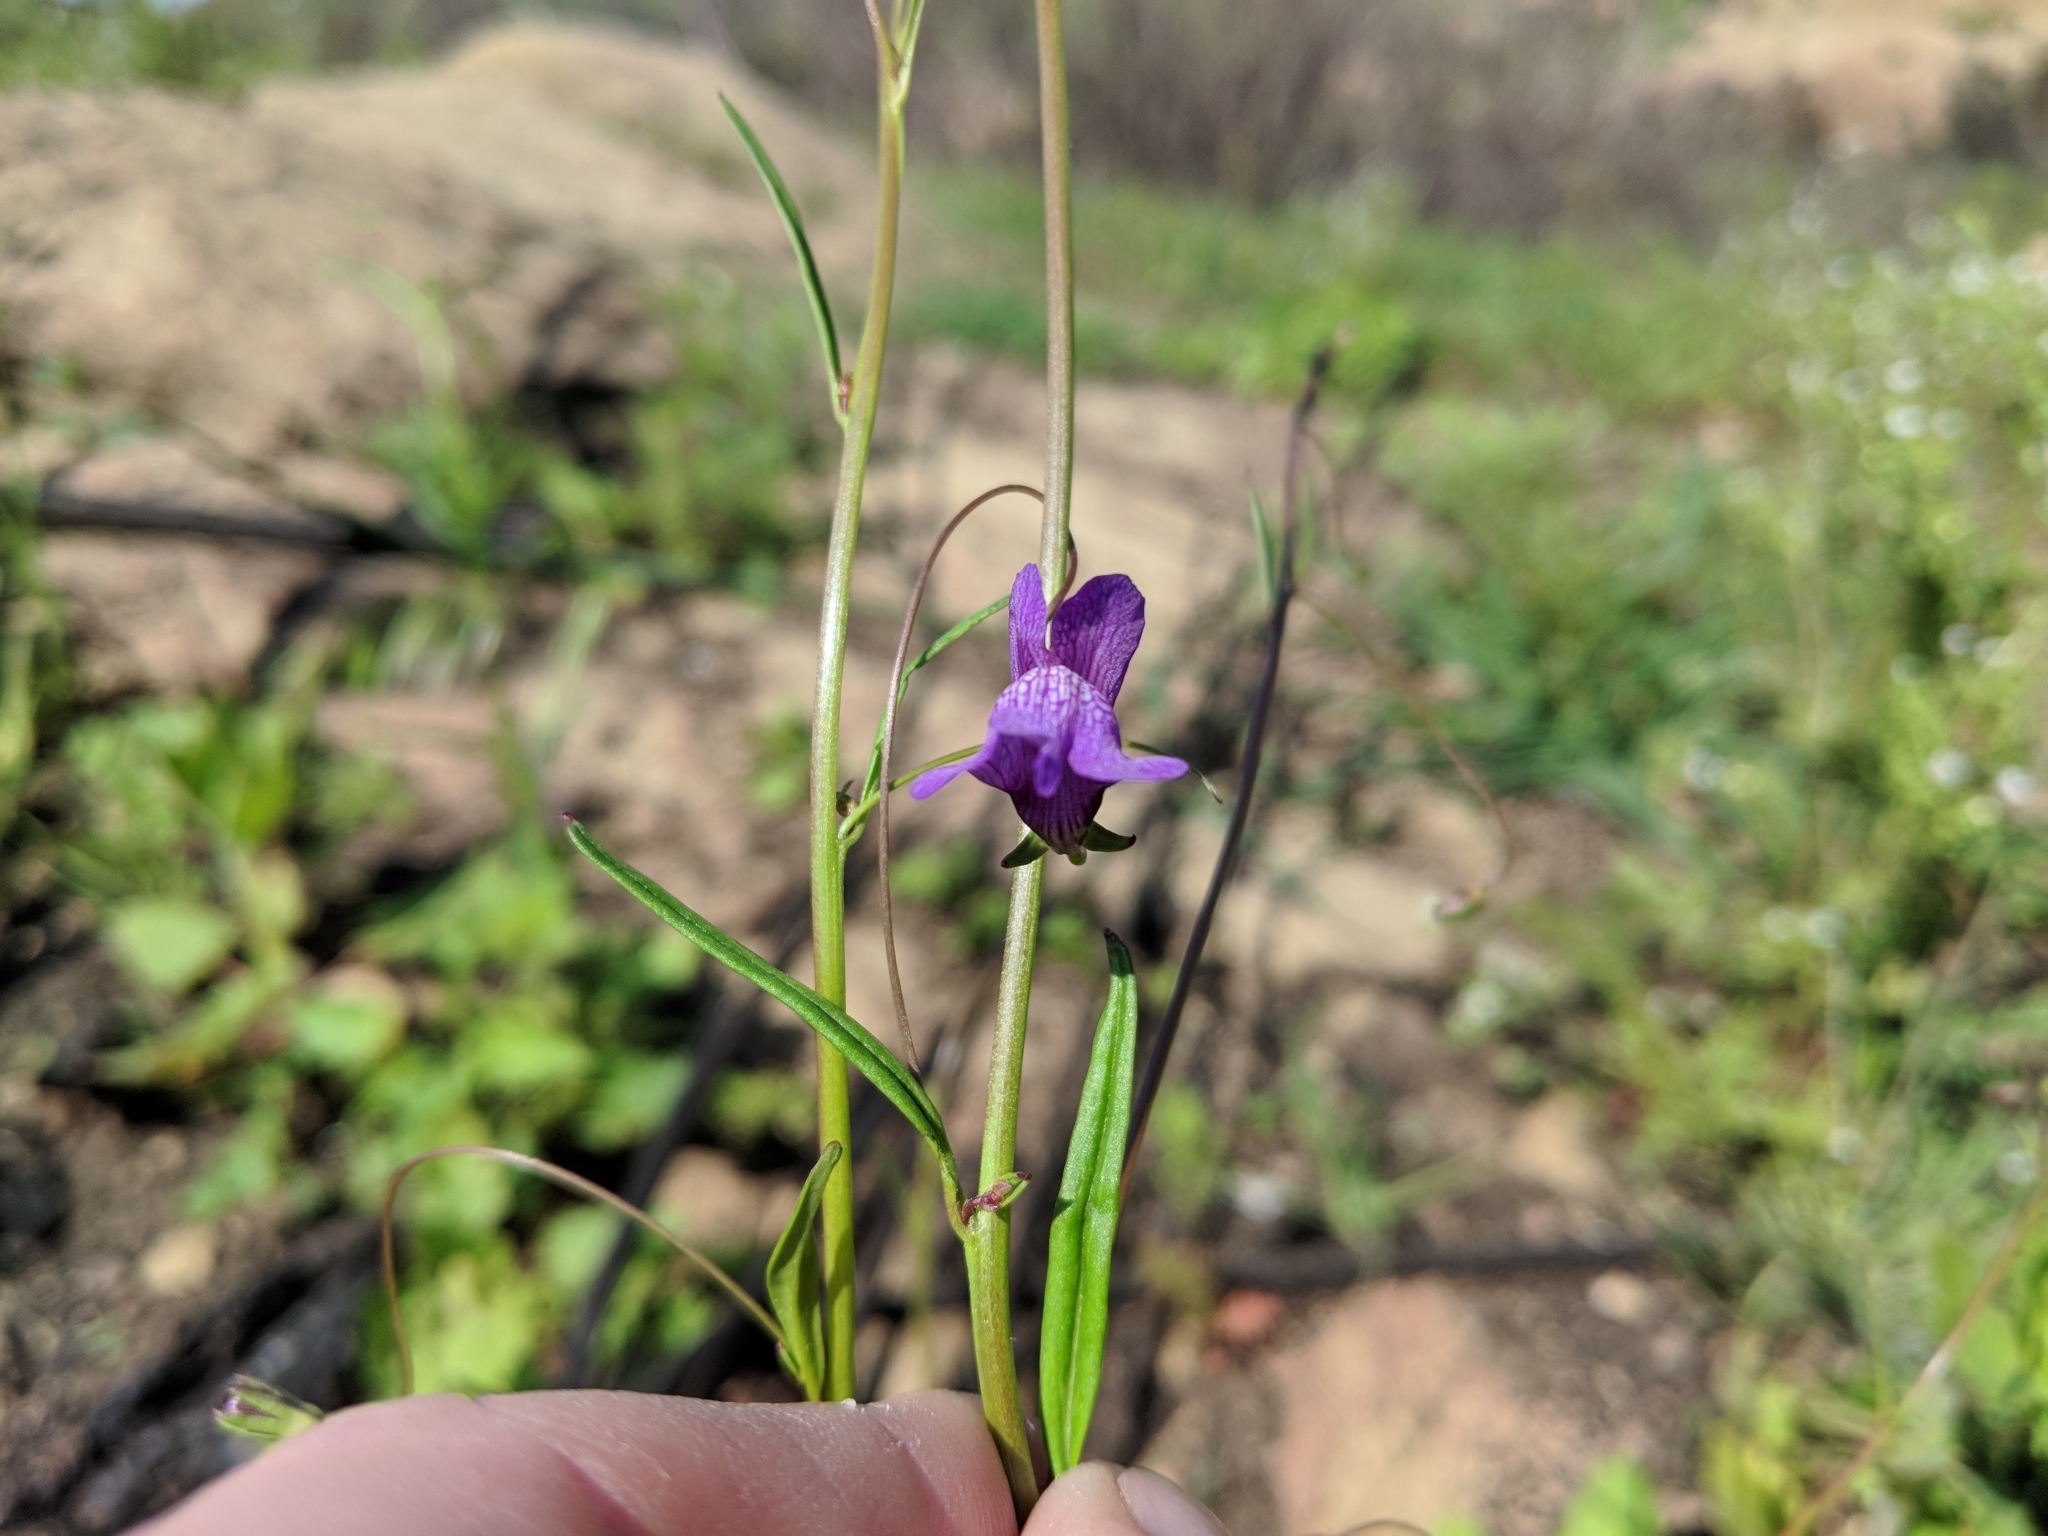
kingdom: Plantae
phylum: Tracheophyta
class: Magnoliopsida
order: Lamiales
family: Plantaginaceae
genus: Neogaerrhinum
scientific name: Neogaerrhinum strictum
